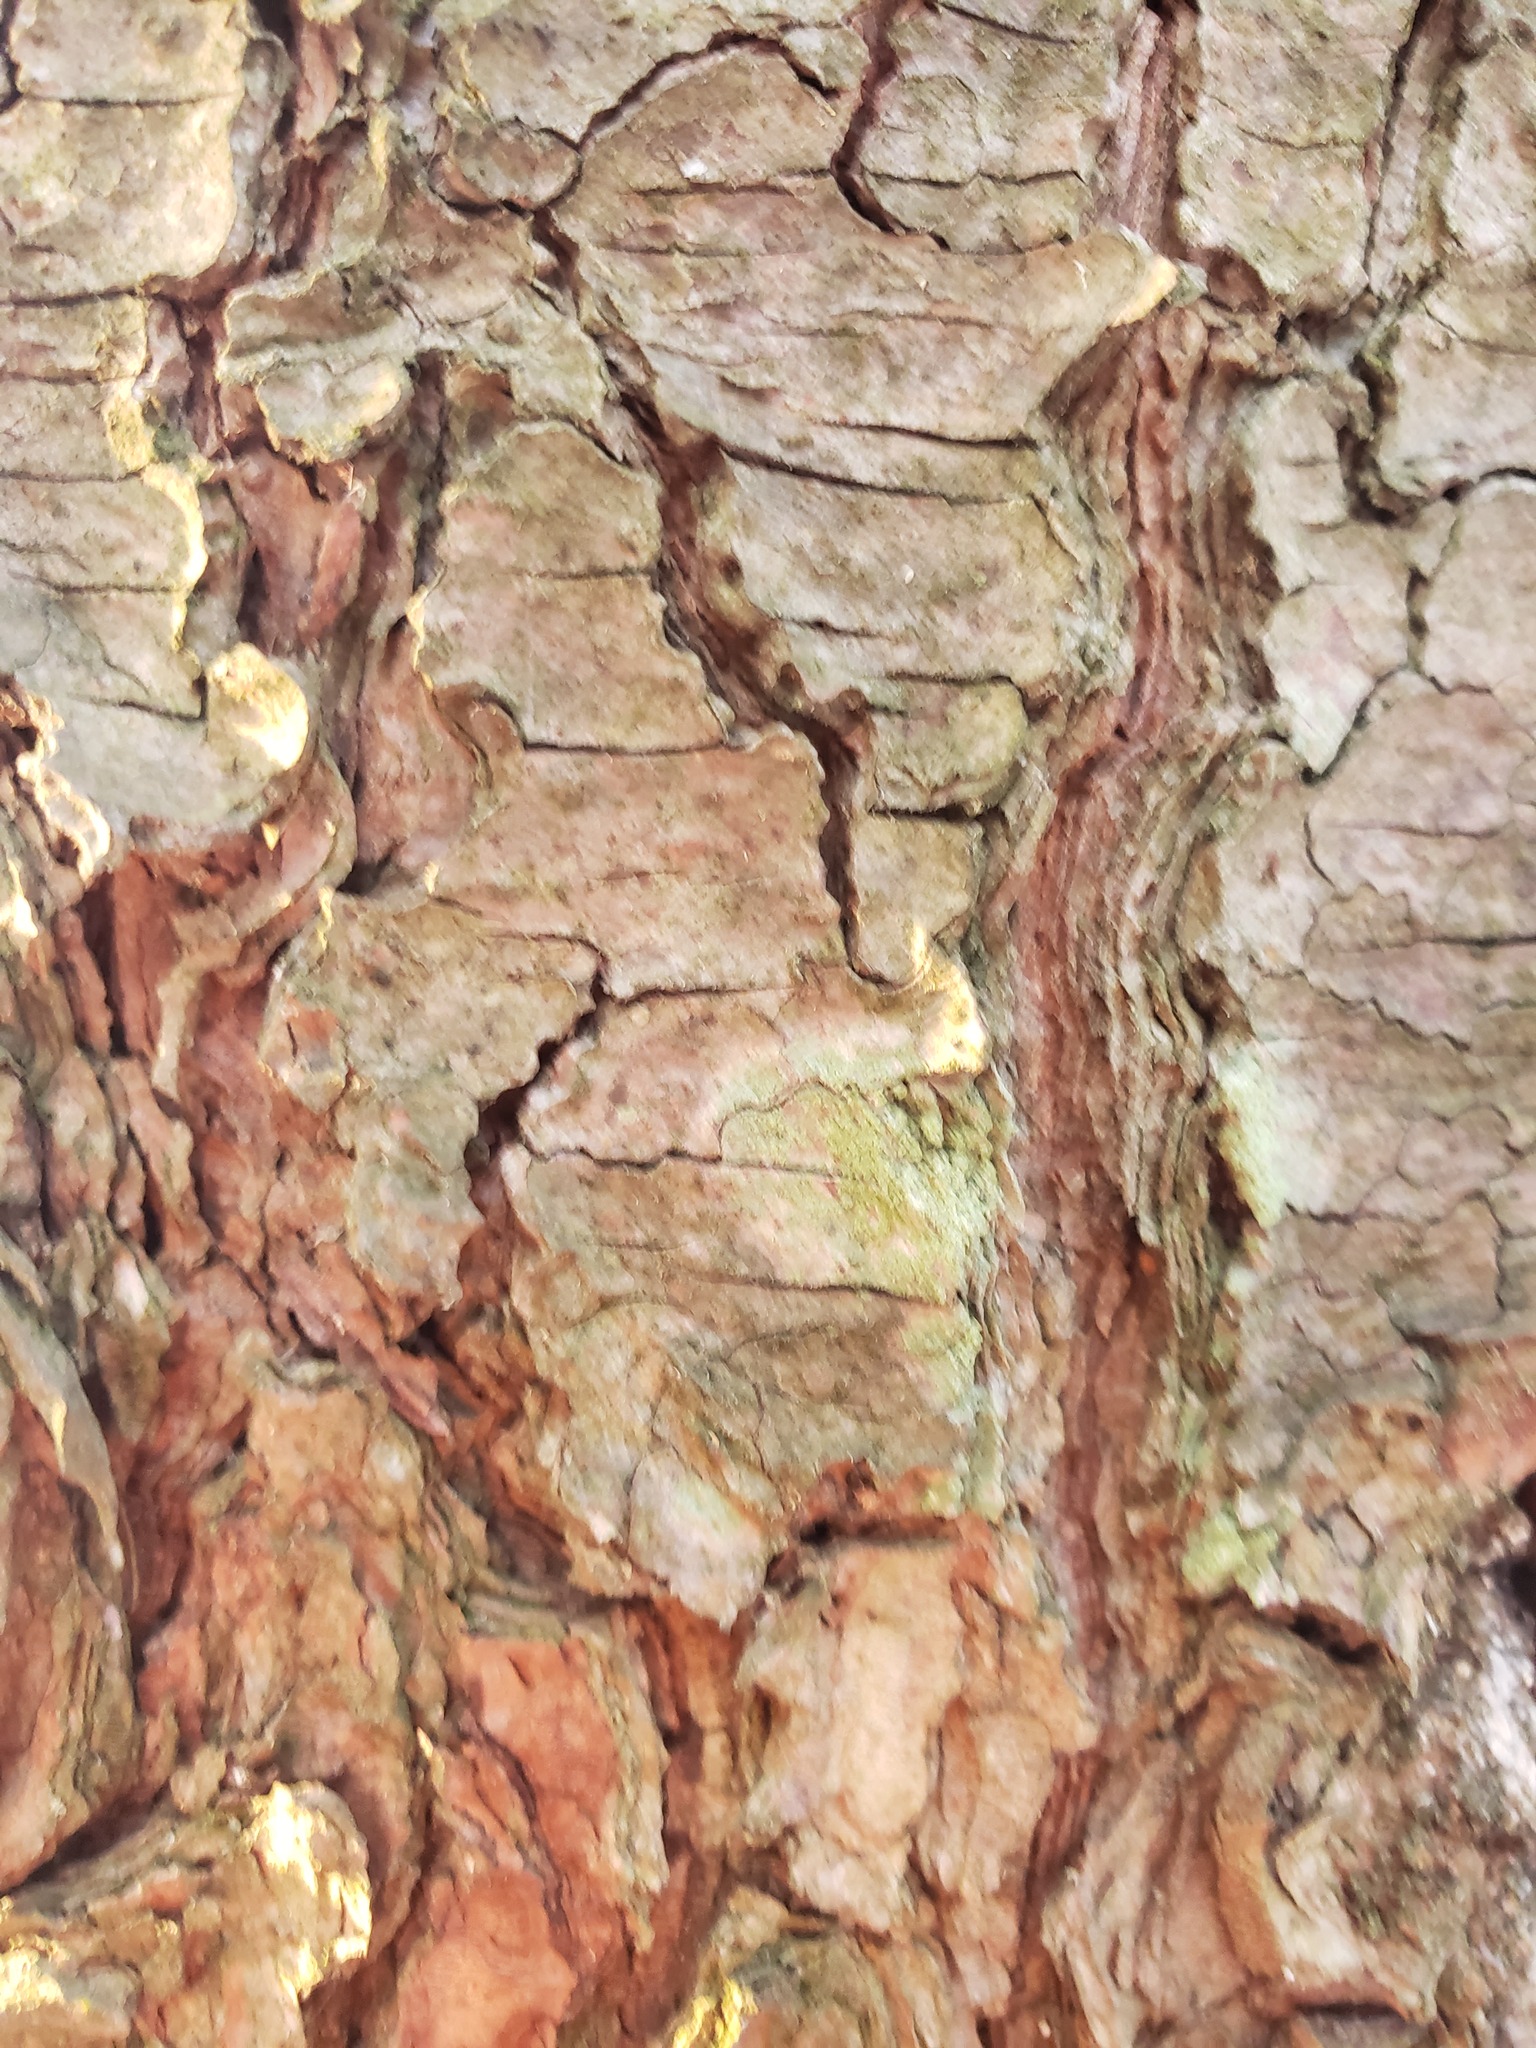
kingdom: Fungi
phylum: Ascomycota
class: Lecanoromycetes
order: Pertusariales
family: Pertusariaceae
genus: Verseghya
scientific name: Verseghya thysanophora
